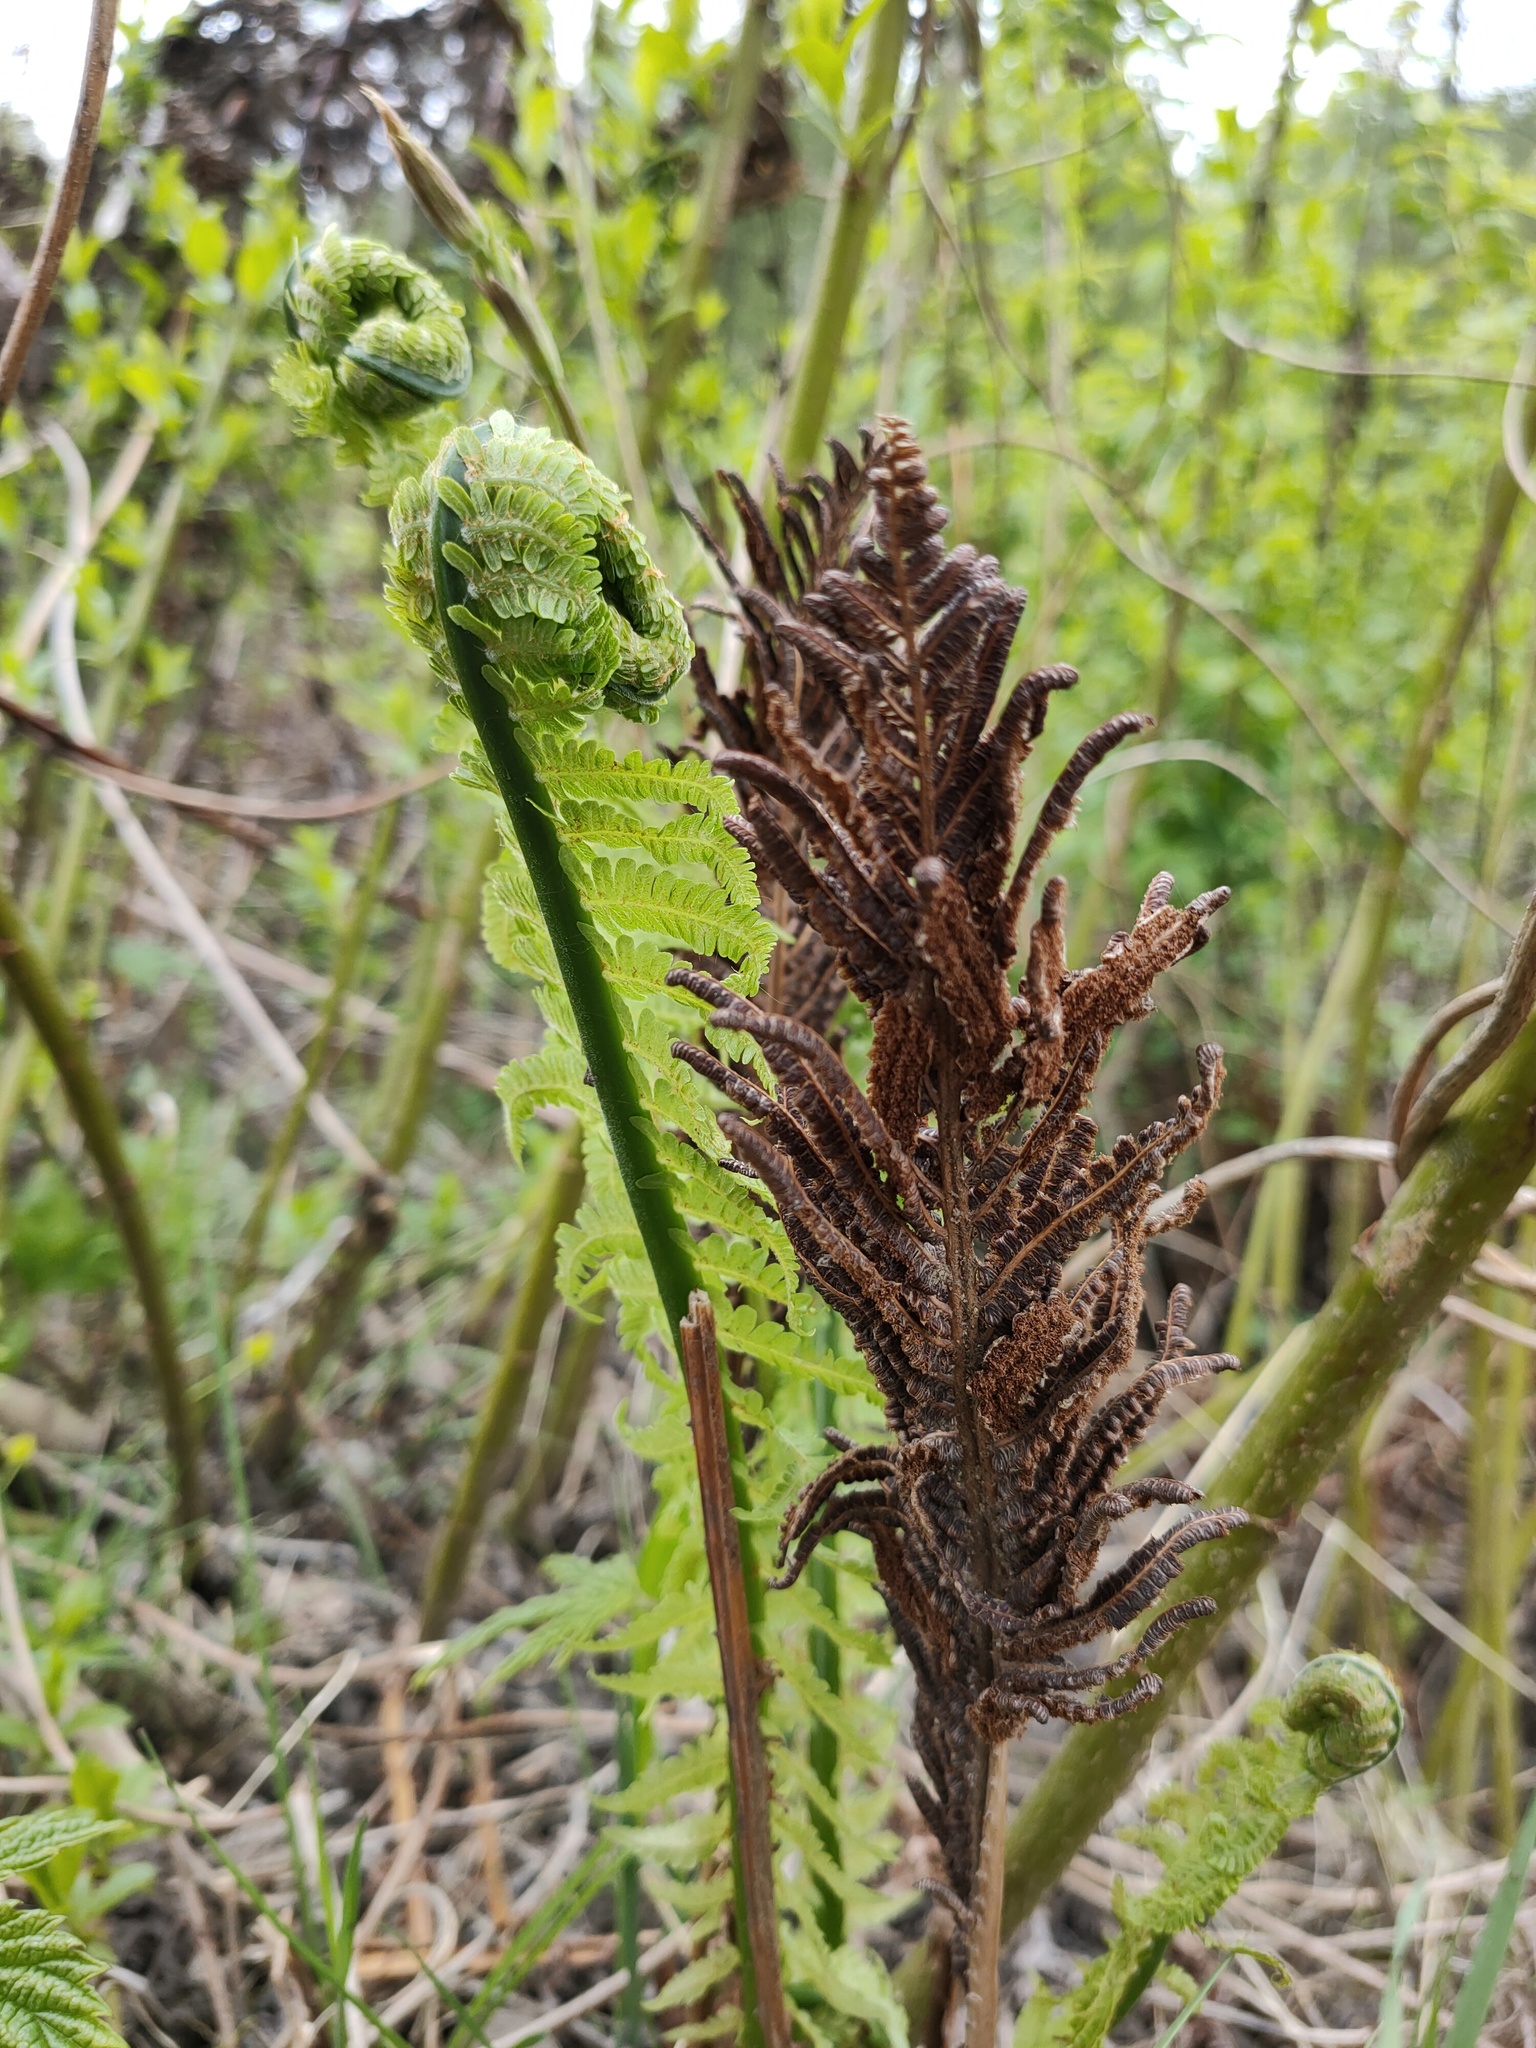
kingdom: Plantae
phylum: Tracheophyta
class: Polypodiopsida
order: Polypodiales
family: Onocleaceae
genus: Matteuccia
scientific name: Matteuccia struthiopteris
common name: Ostrich fern
